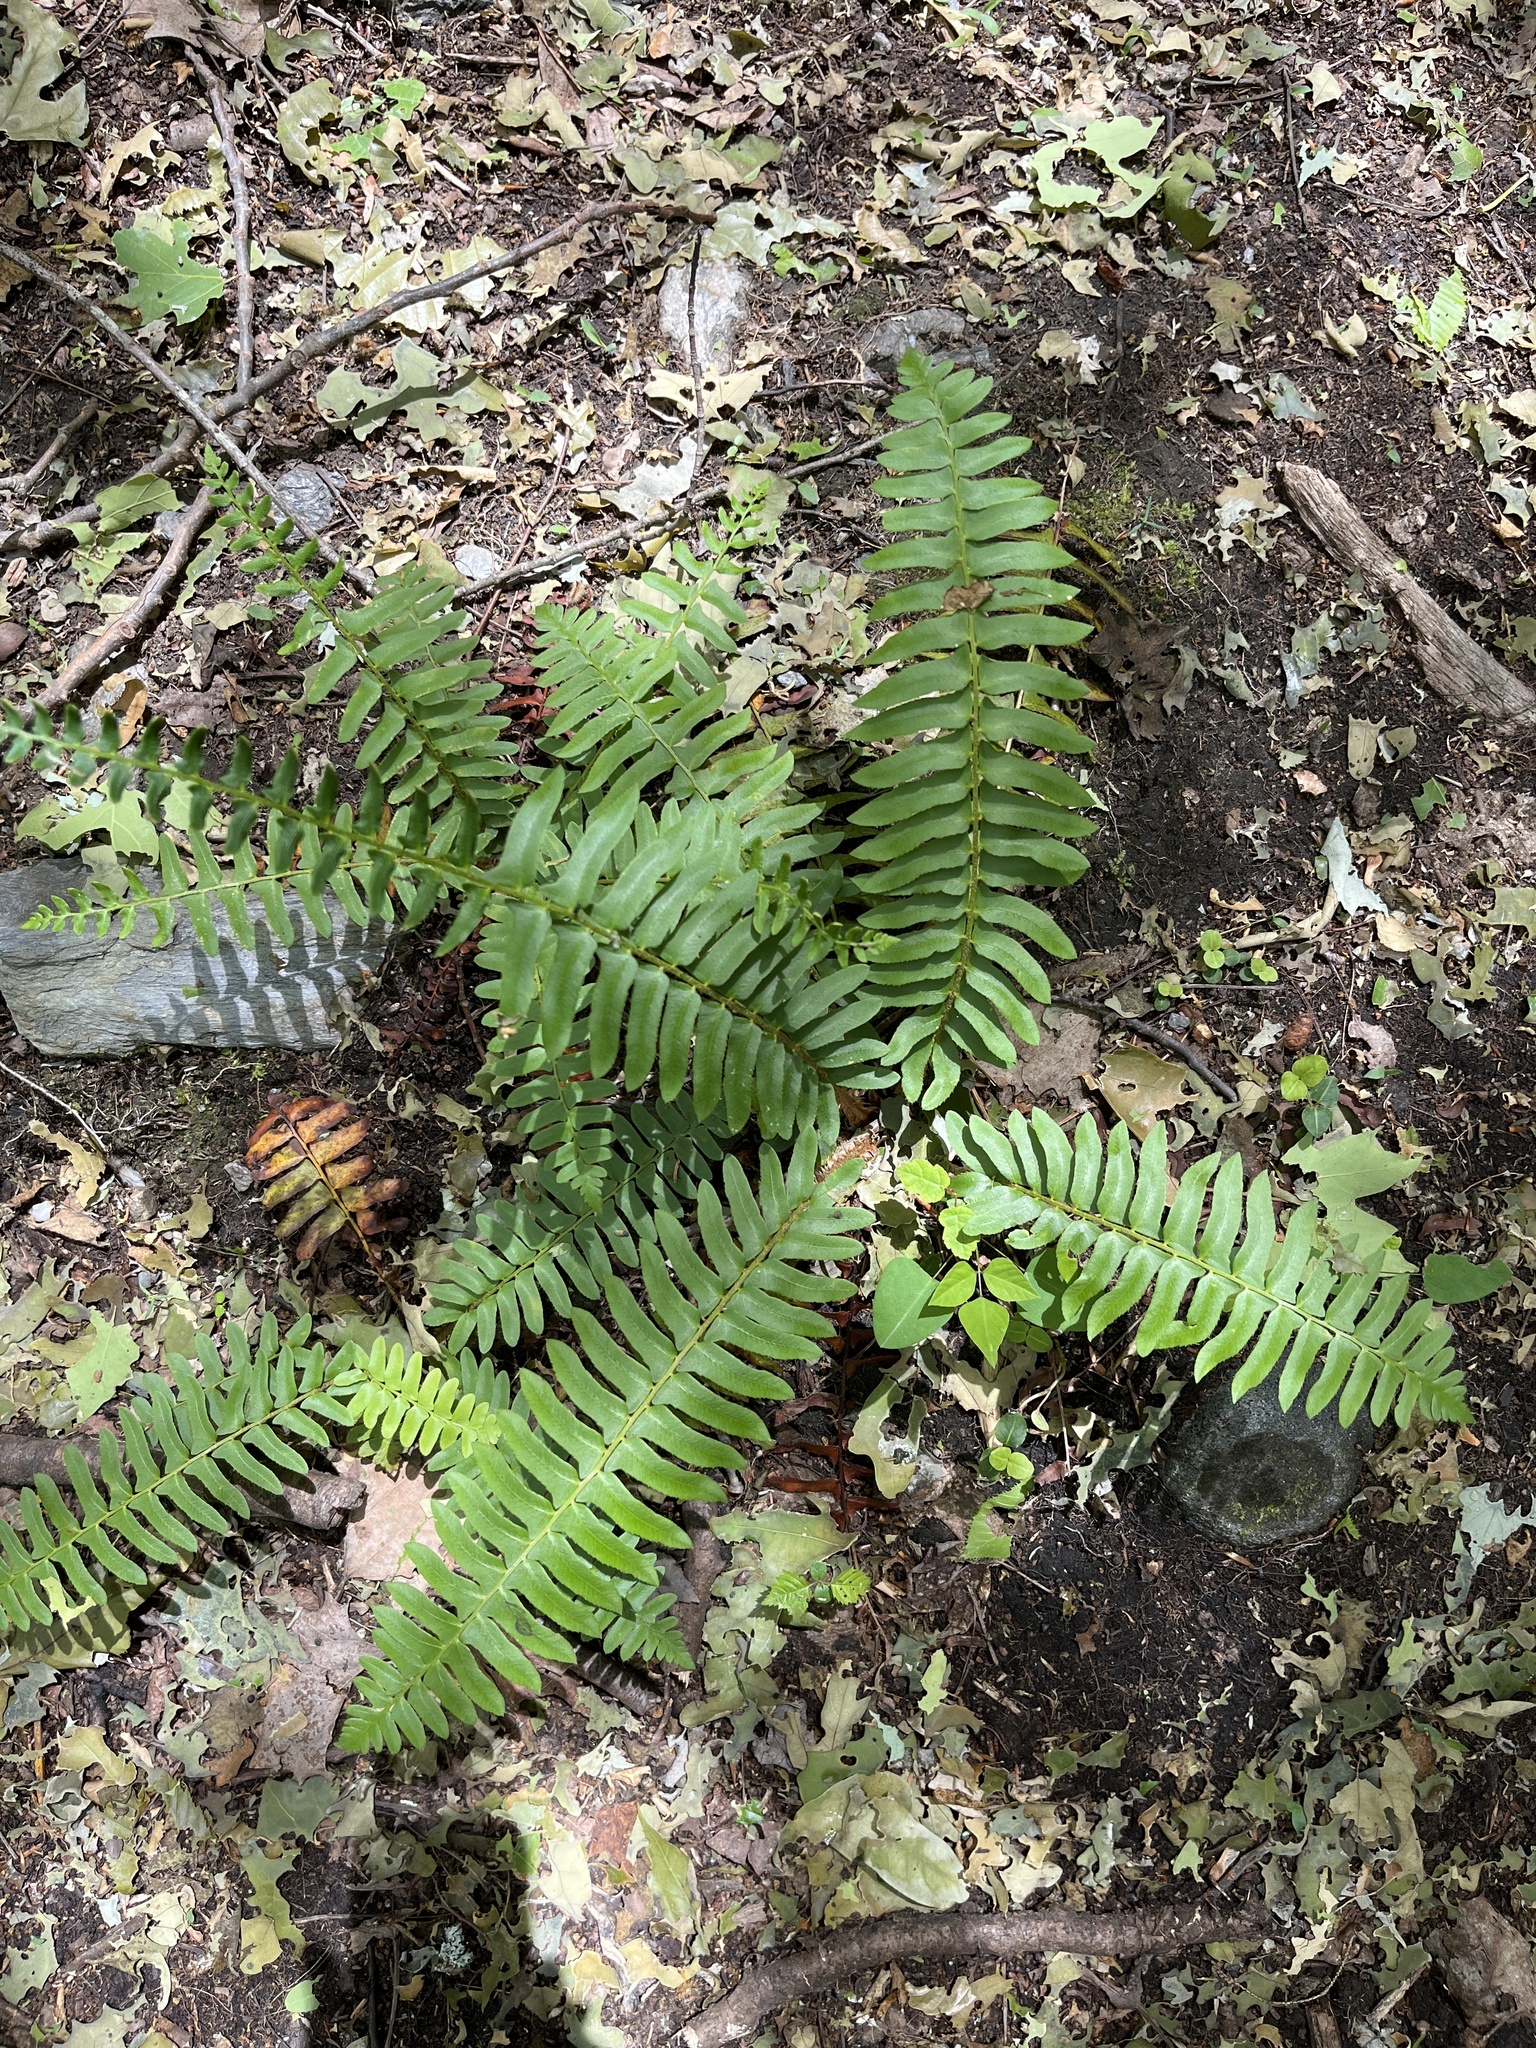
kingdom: Plantae
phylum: Tracheophyta
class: Polypodiopsida
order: Polypodiales
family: Dryopteridaceae
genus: Polystichum
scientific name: Polystichum acrostichoides
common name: Christmas fern
